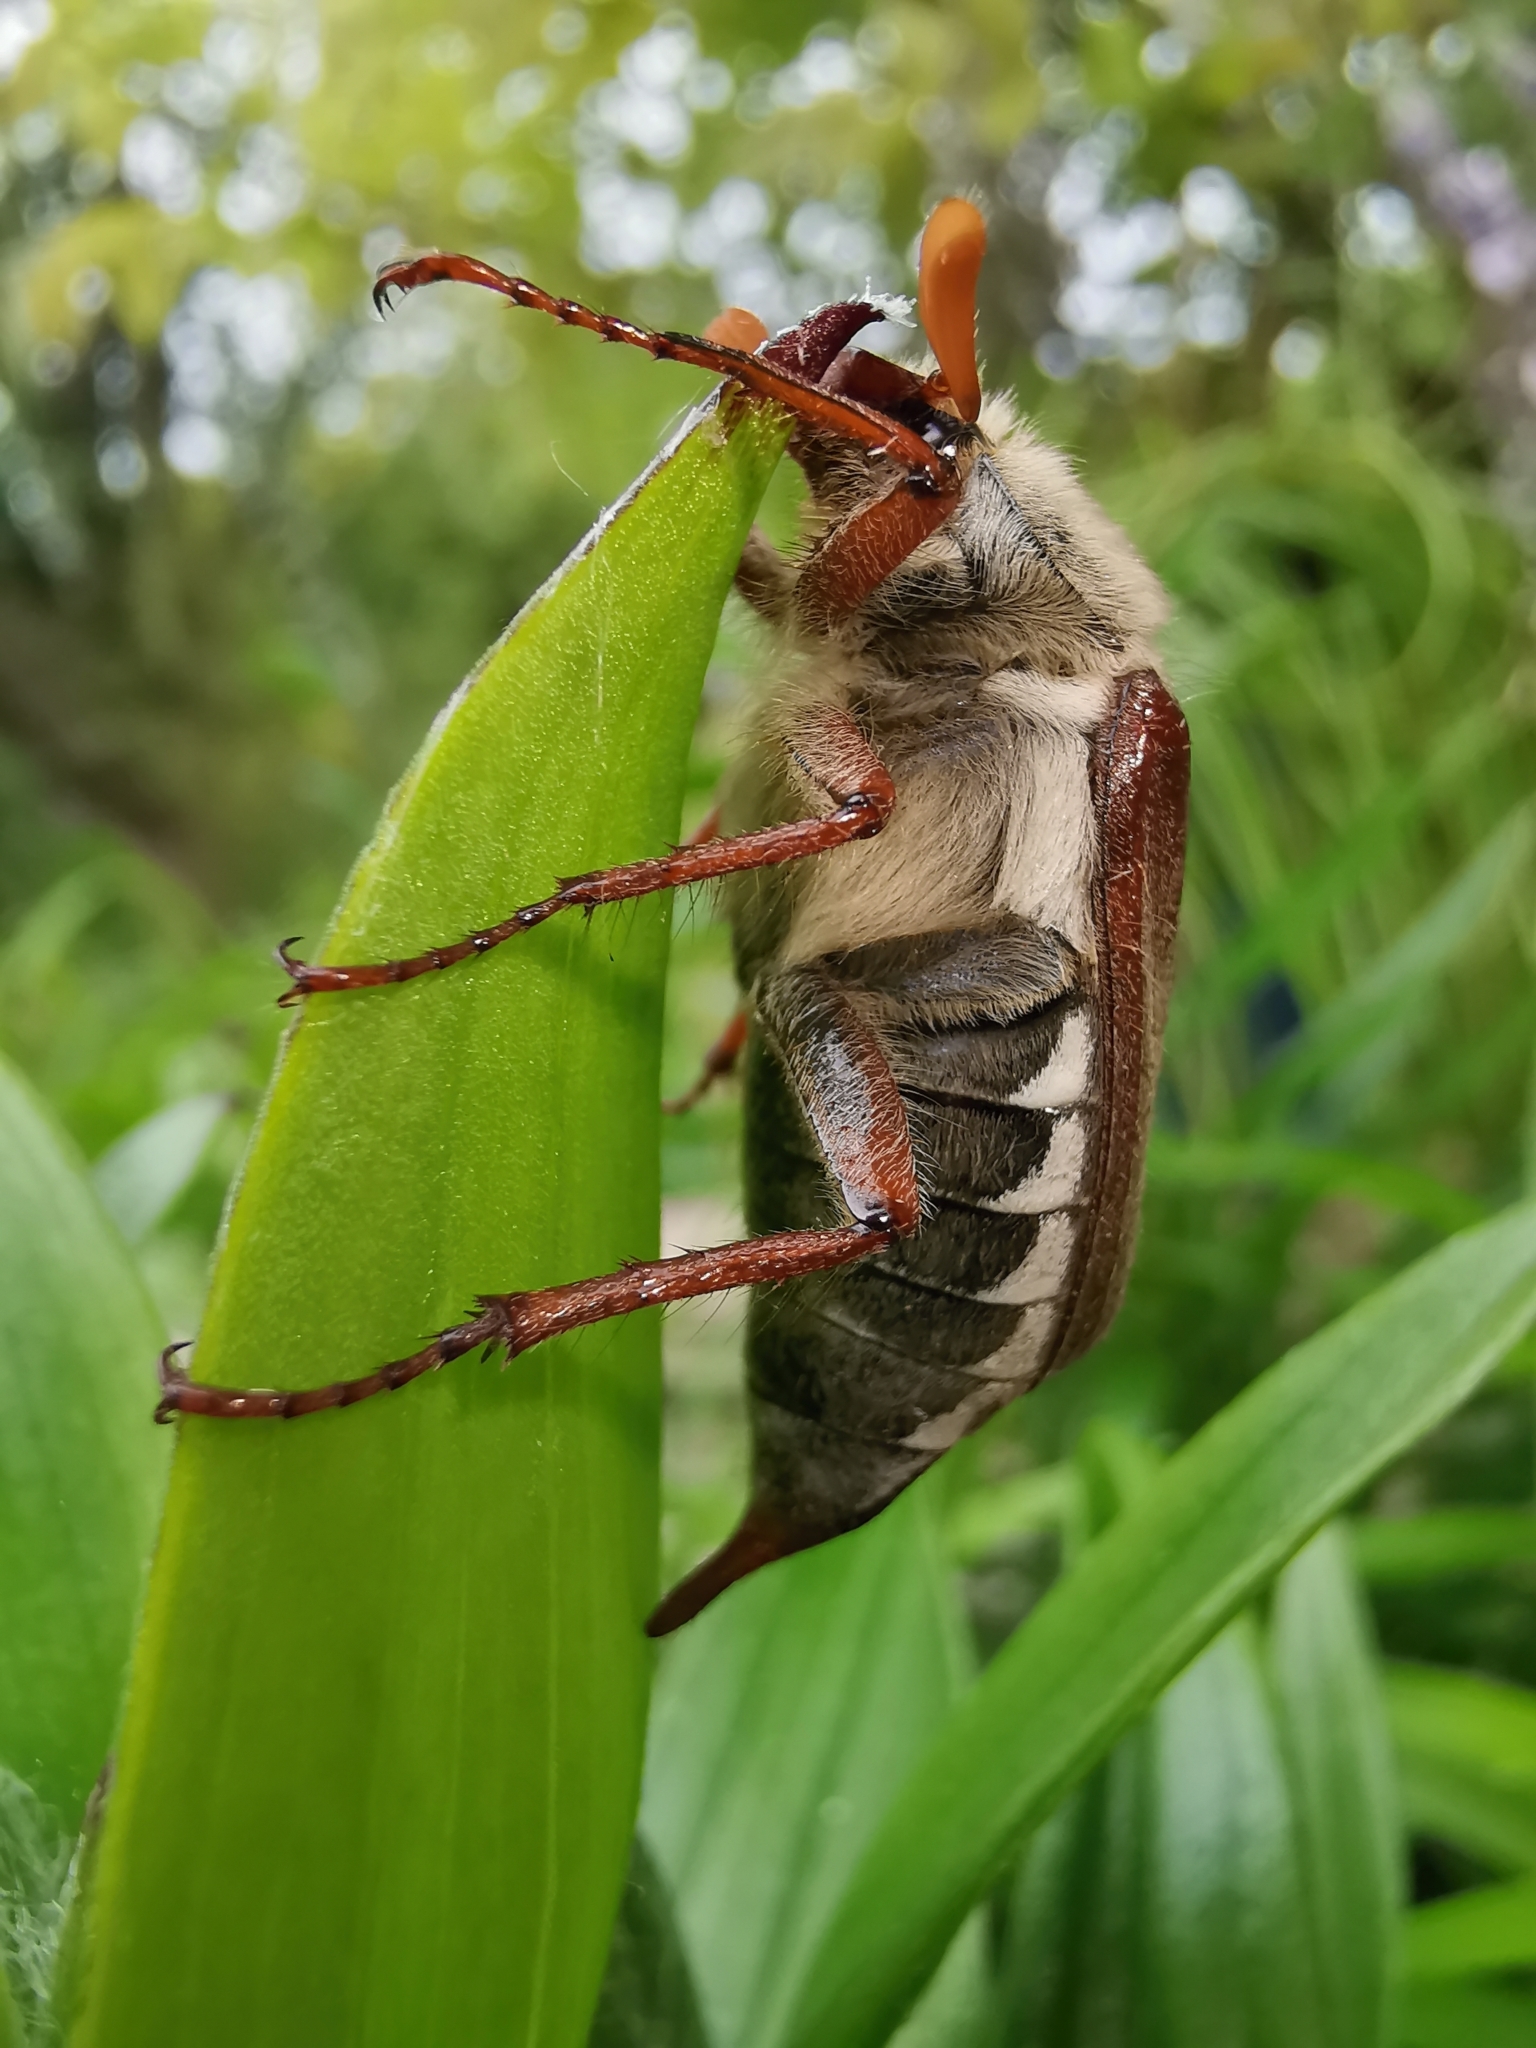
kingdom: Animalia
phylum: Arthropoda
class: Insecta
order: Coleoptera
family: Scarabaeidae
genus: Melolontha
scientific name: Melolontha melolontha
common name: Cockchafer maybeetle
